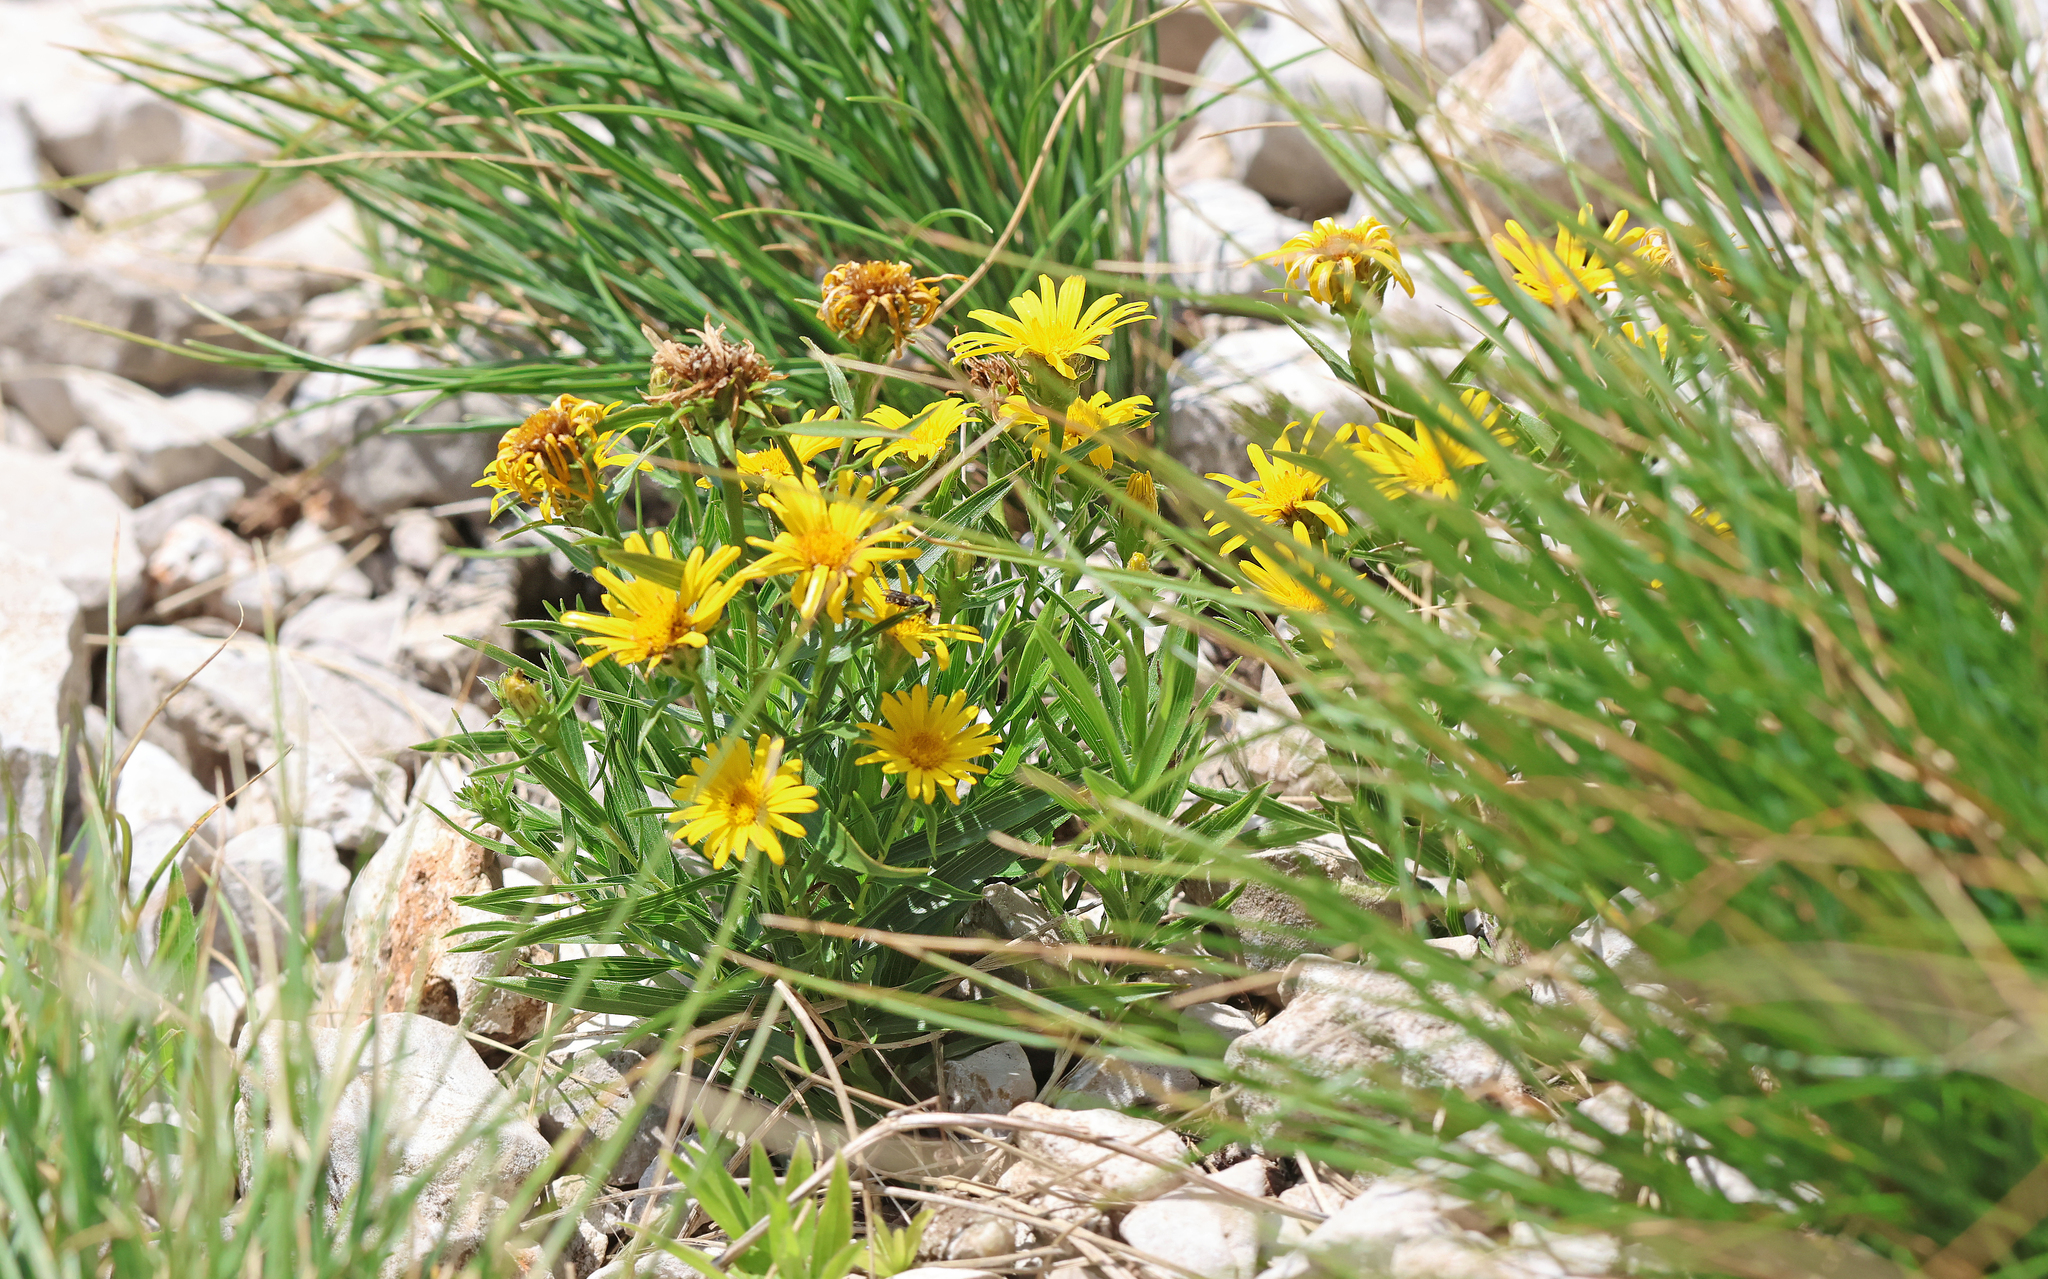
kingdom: Plantae
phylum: Tracheophyta
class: Magnoliopsida
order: Asterales
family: Asteraceae
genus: Pentanema
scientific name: Pentanema ensifolium
